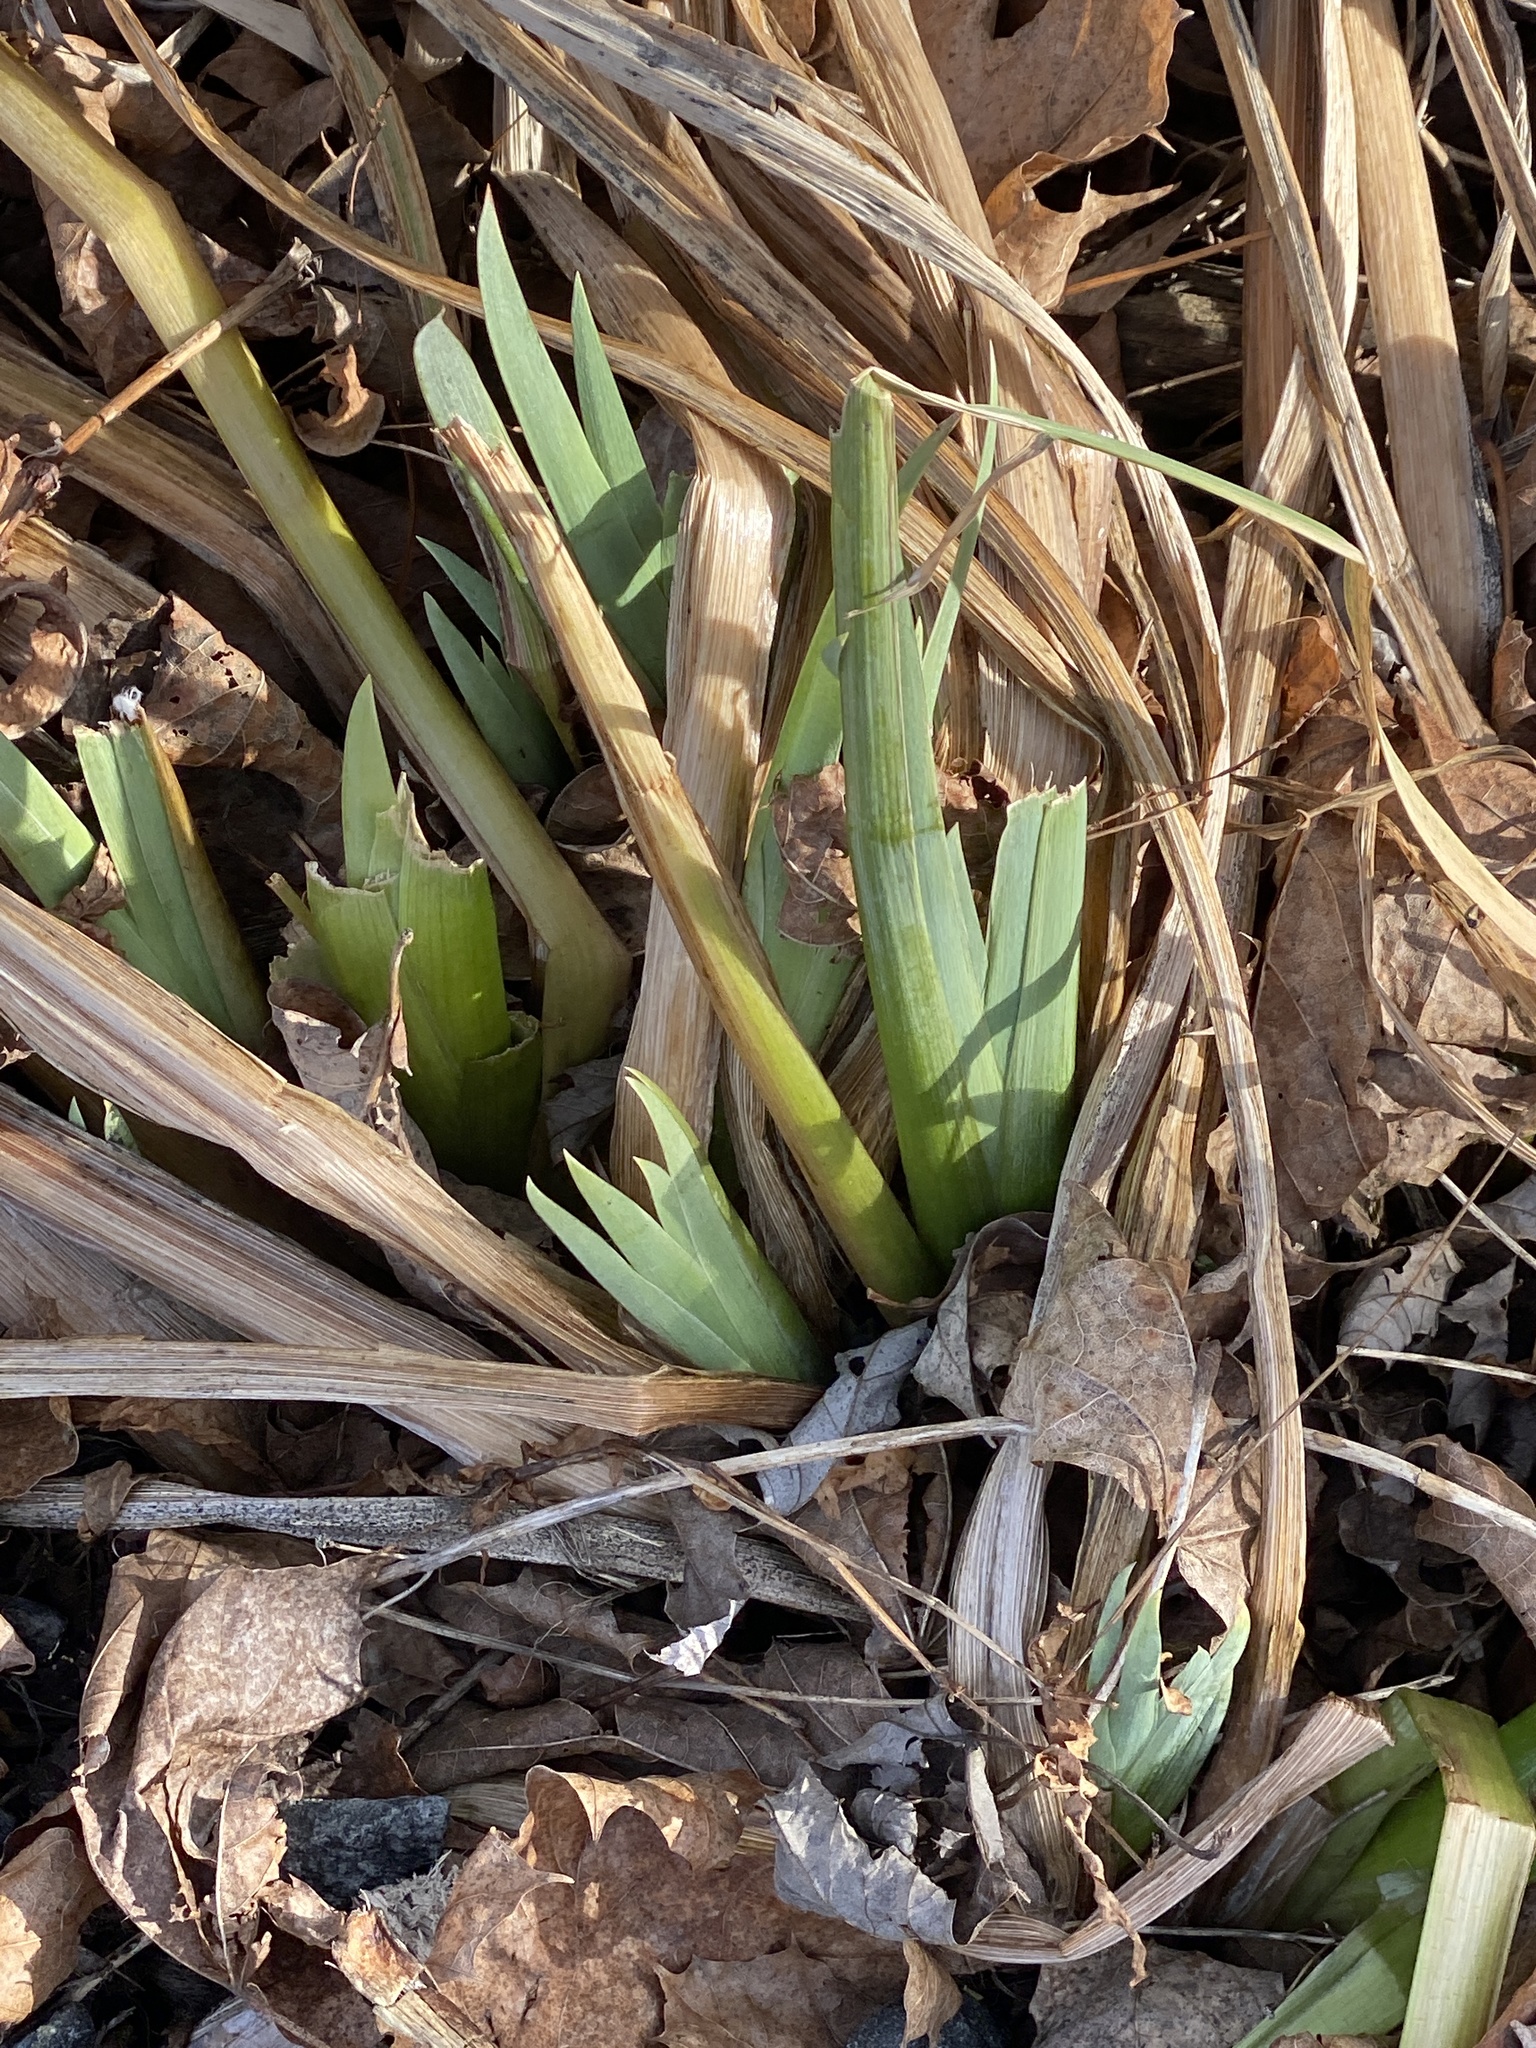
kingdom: Plantae
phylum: Tracheophyta
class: Liliopsida
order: Asparagales
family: Iridaceae
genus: Iris
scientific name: Iris pseudacorus
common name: Yellow flag
